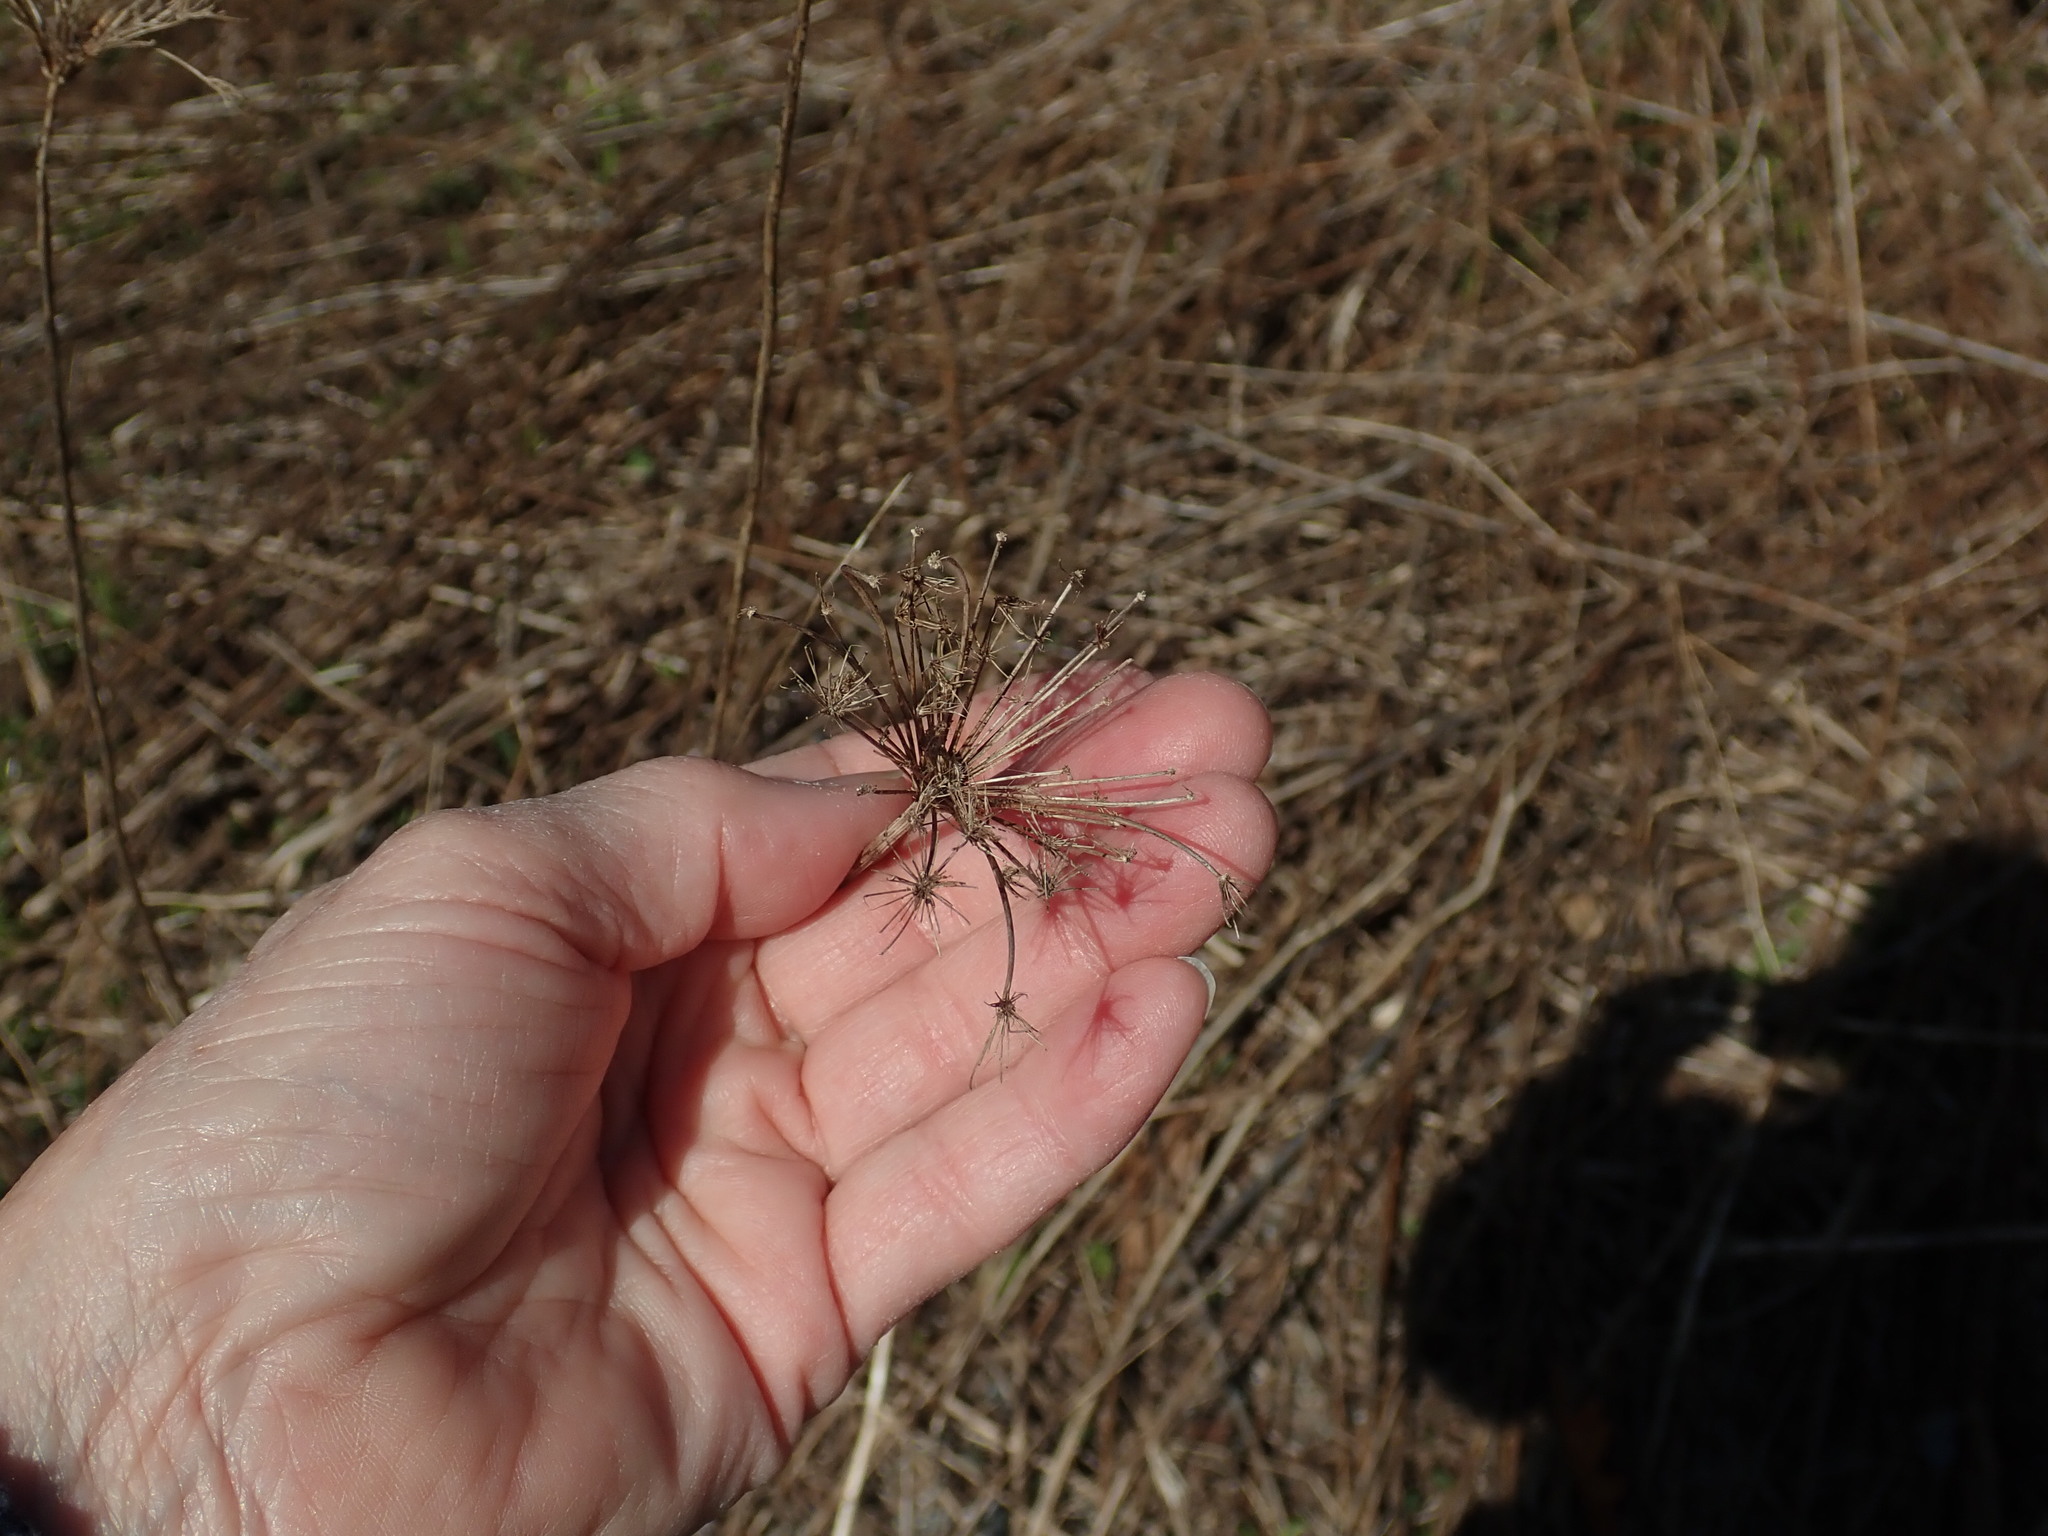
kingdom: Plantae
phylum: Tracheophyta
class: Magnoliopsida
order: Apiales
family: Apiaceae
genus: Daucus
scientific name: Daucus carota
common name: Wild carrot
